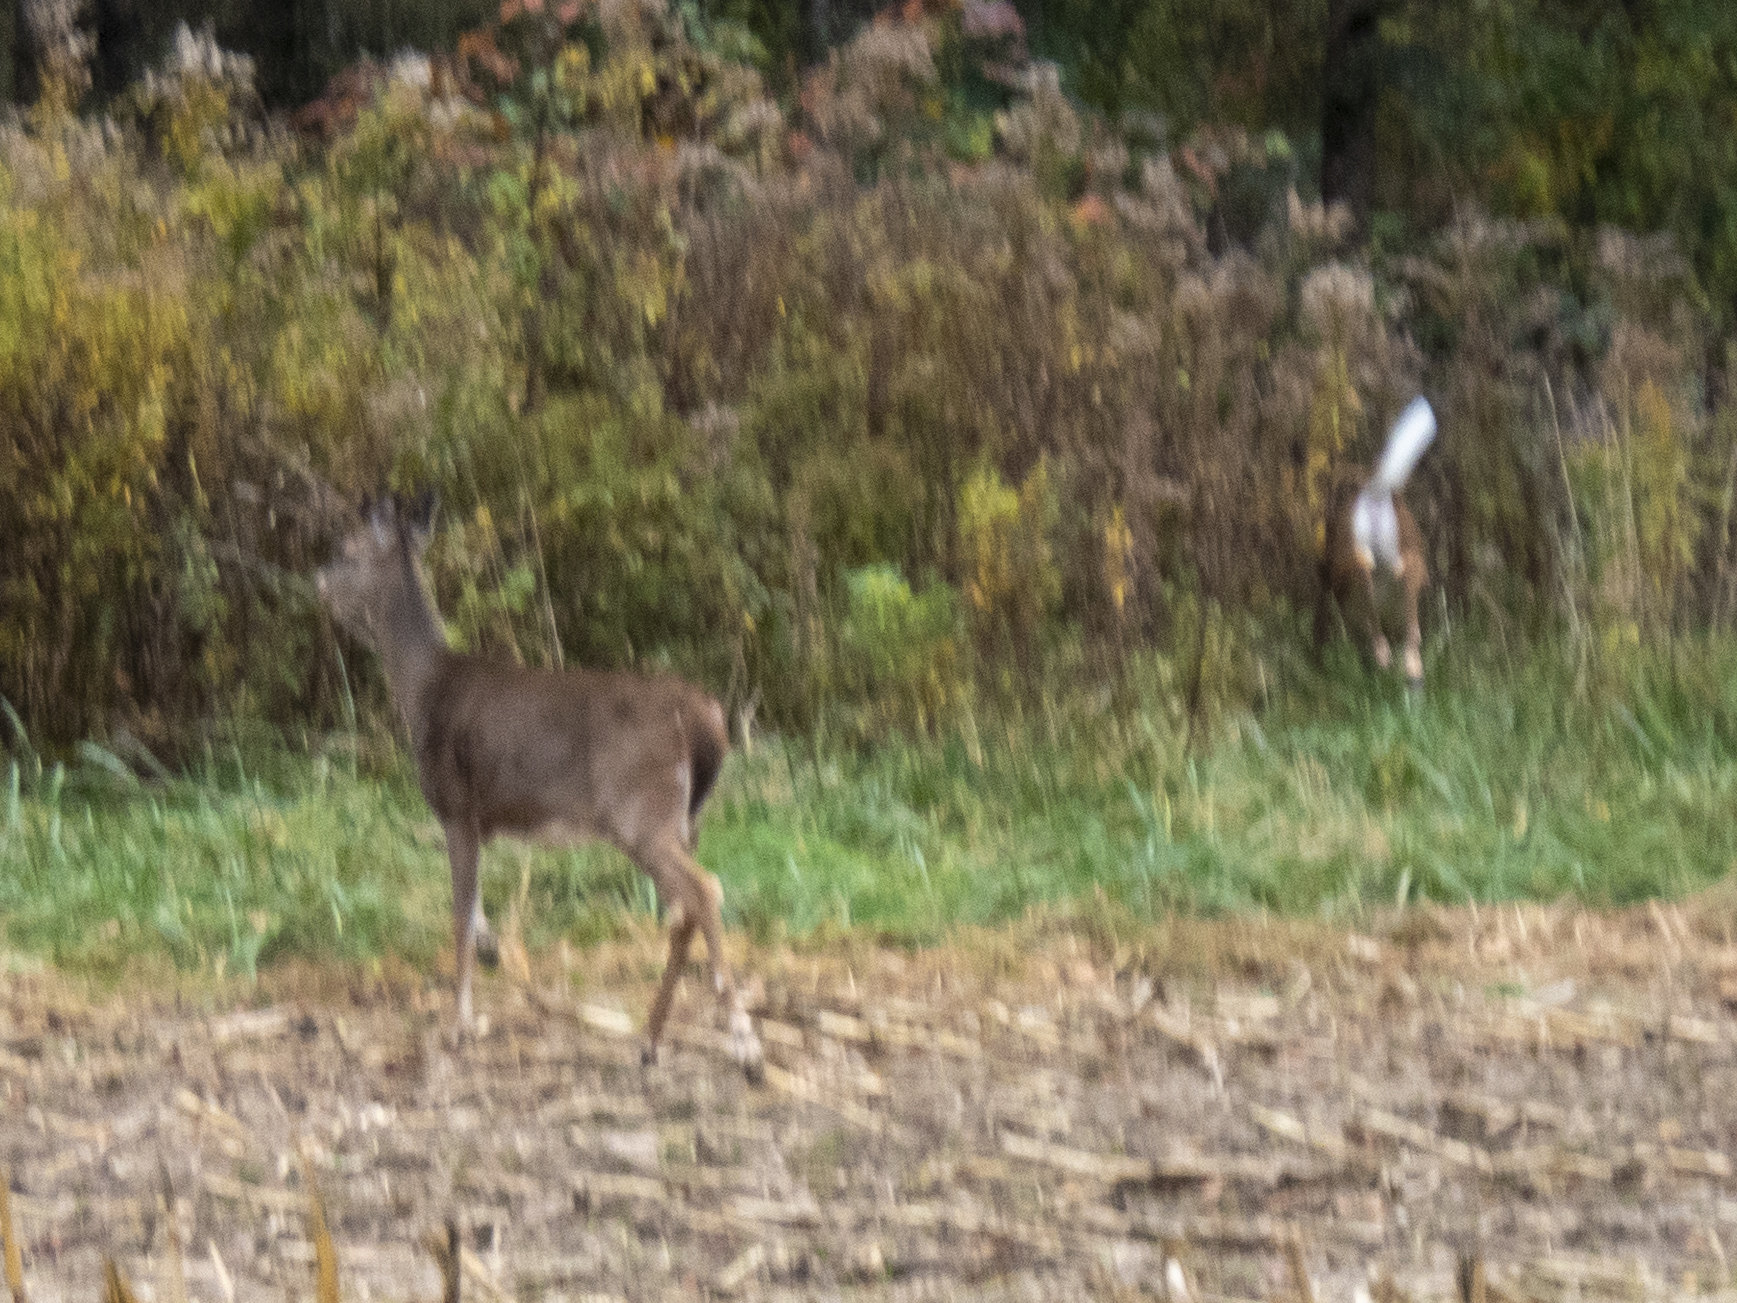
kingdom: Animalia
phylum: Chordata
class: Mammalia
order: Artiodactyla
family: Cervidae
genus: Odocoileus
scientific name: Odocoileus virginianus
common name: White-tailed deer
